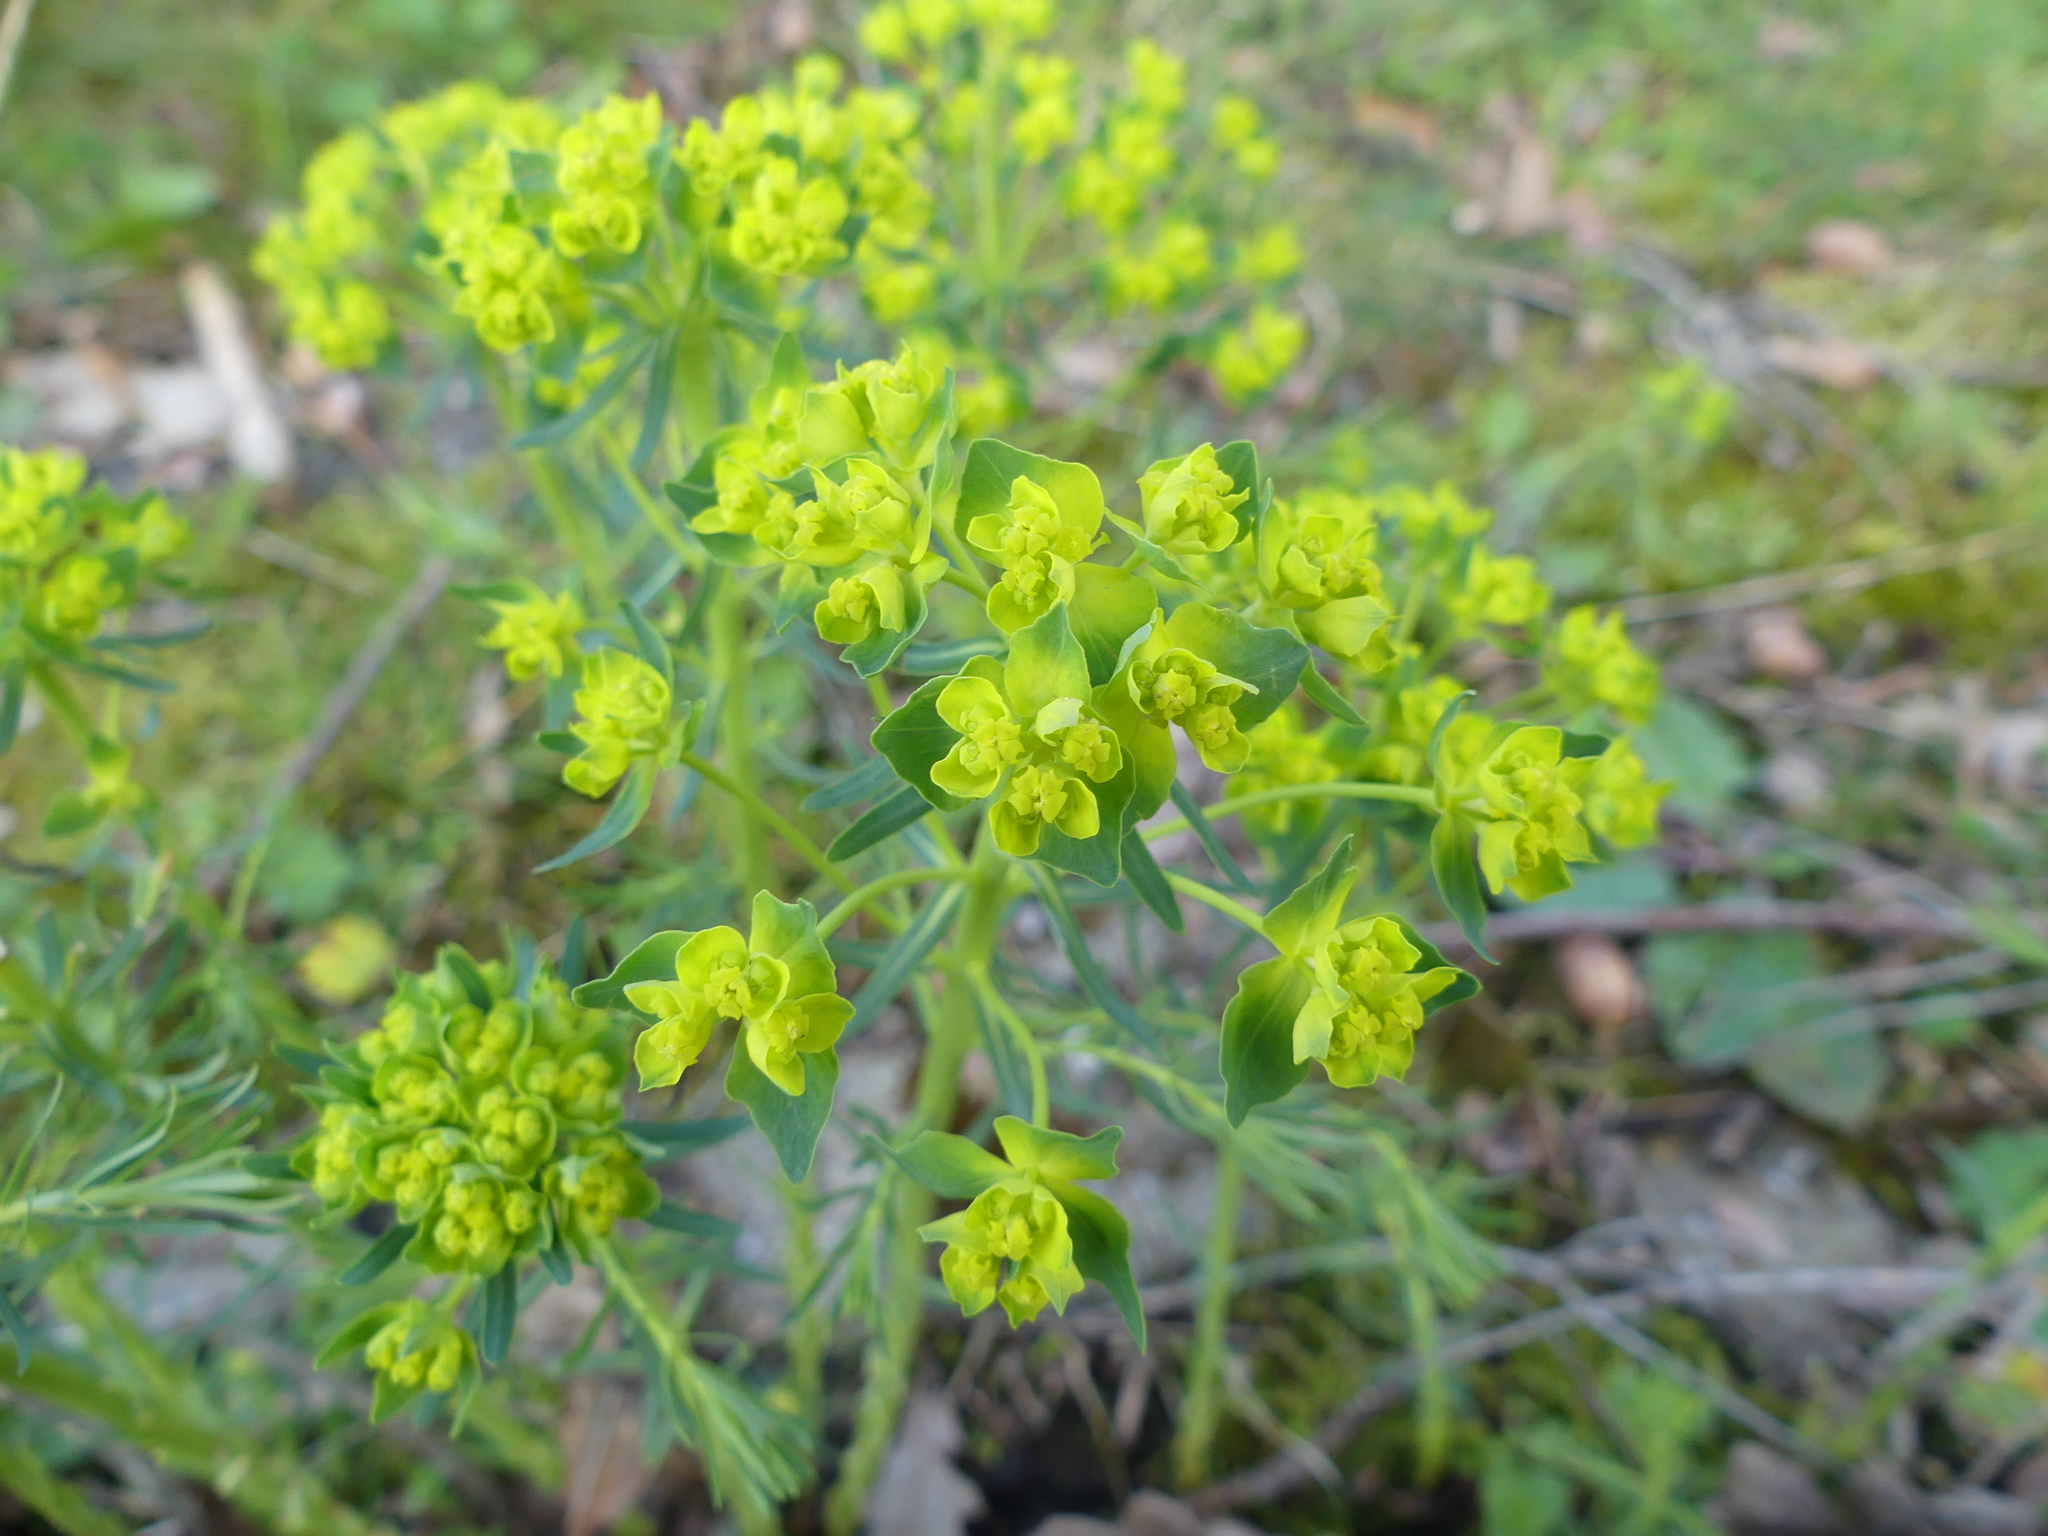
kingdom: Plantae
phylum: Tracheophyta
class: Magnoliopsida
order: Malpighiales
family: Euphorbiaceae
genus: Euphorbia
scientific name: Euphorbia cyparissias
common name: Cypress spurge
